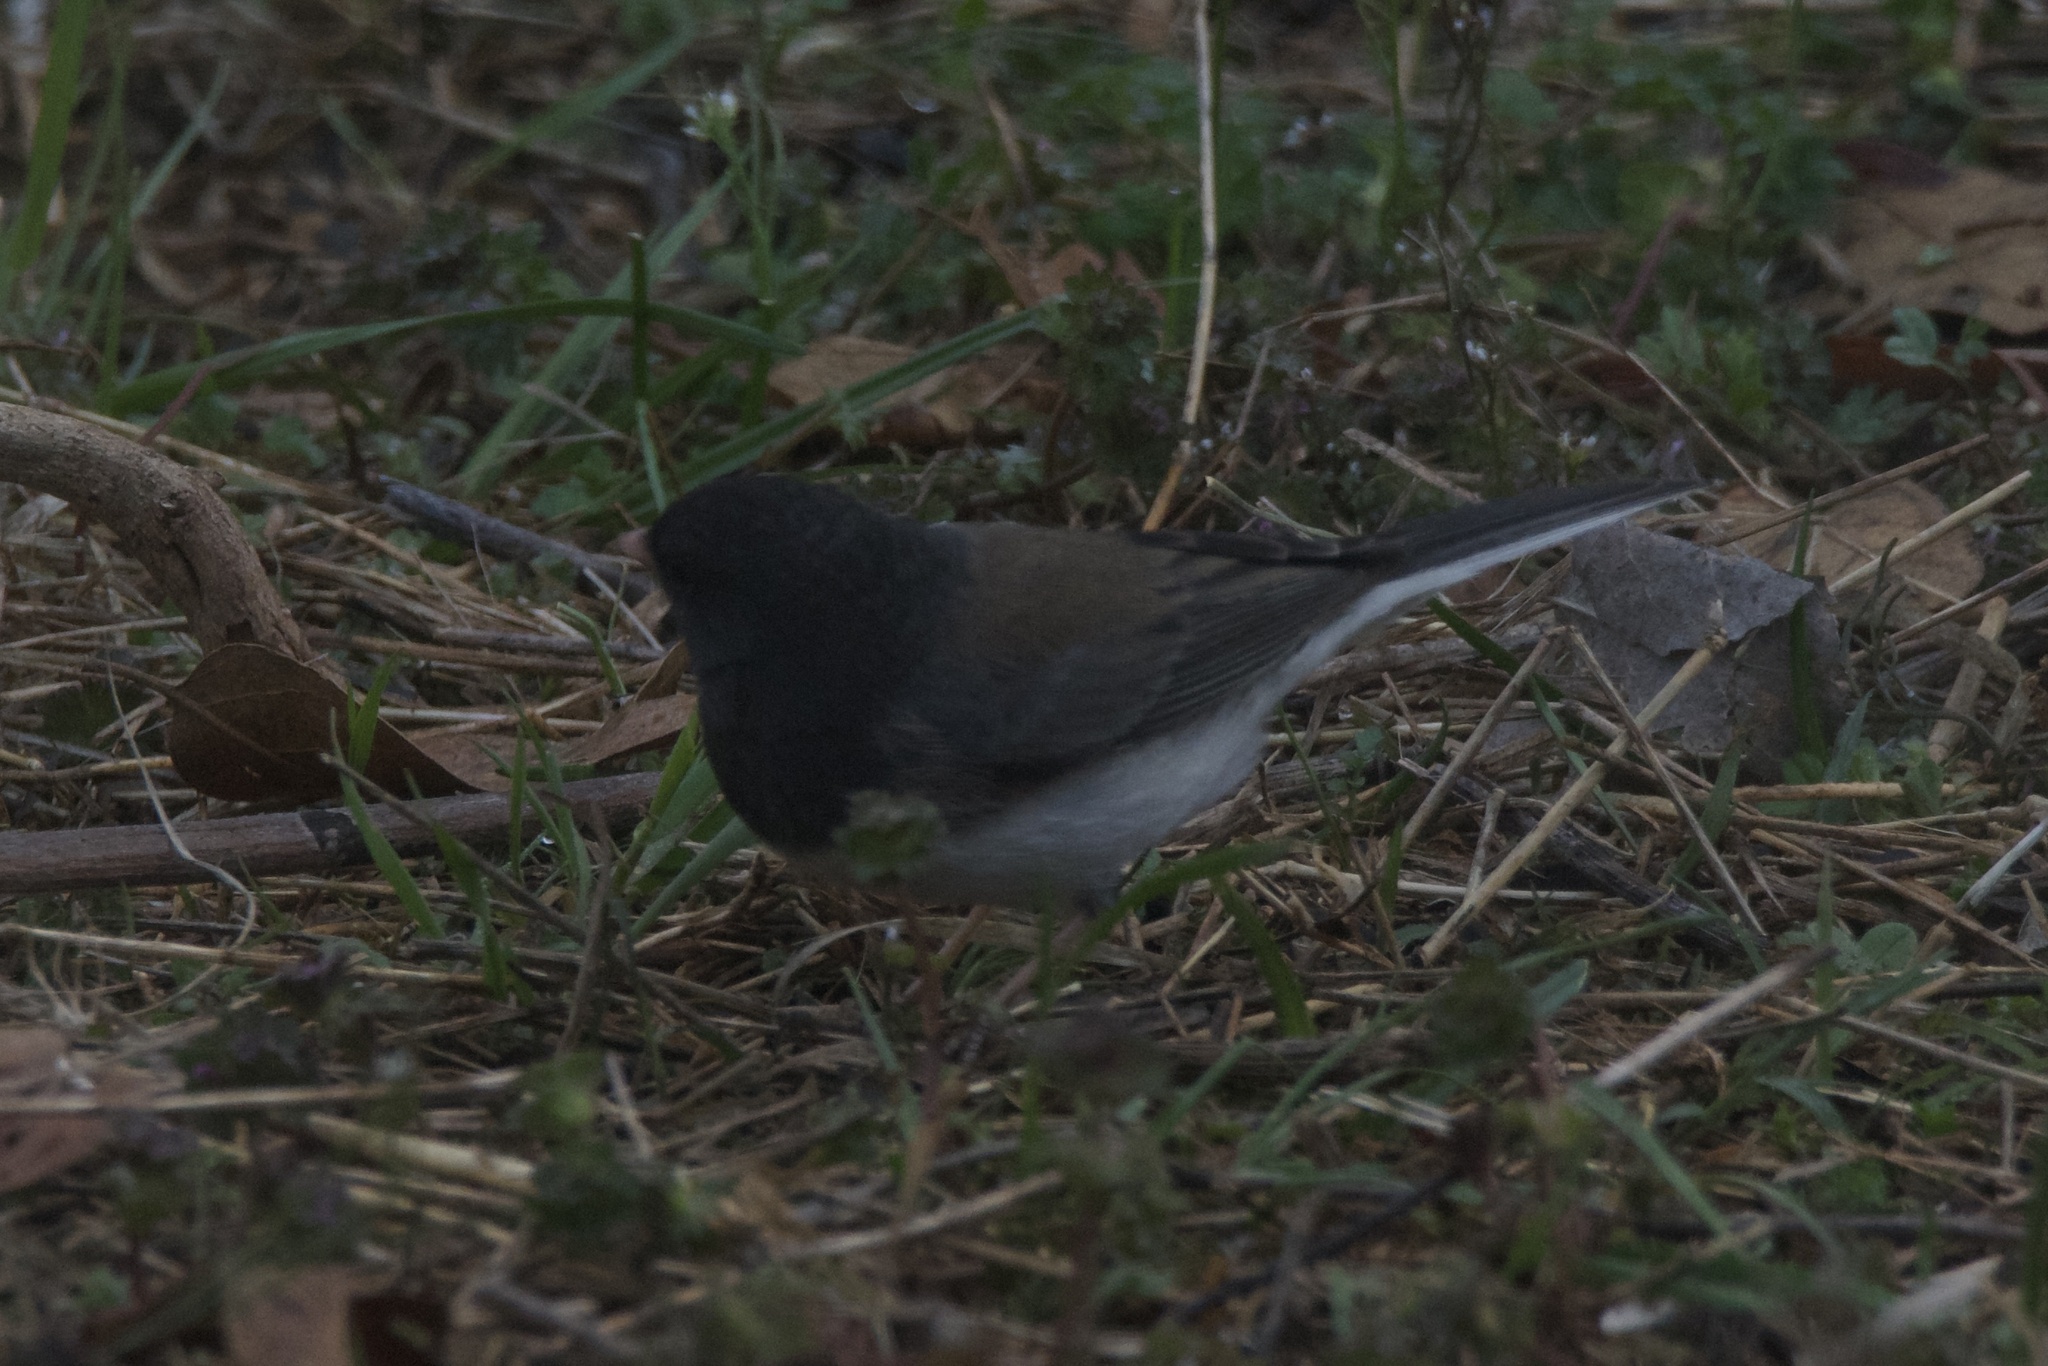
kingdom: Animalia
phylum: Chordata
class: Aves
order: Passeriformes
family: Passerellidae
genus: Junco
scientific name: Junco hyemalis
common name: Dark-eyed junco
